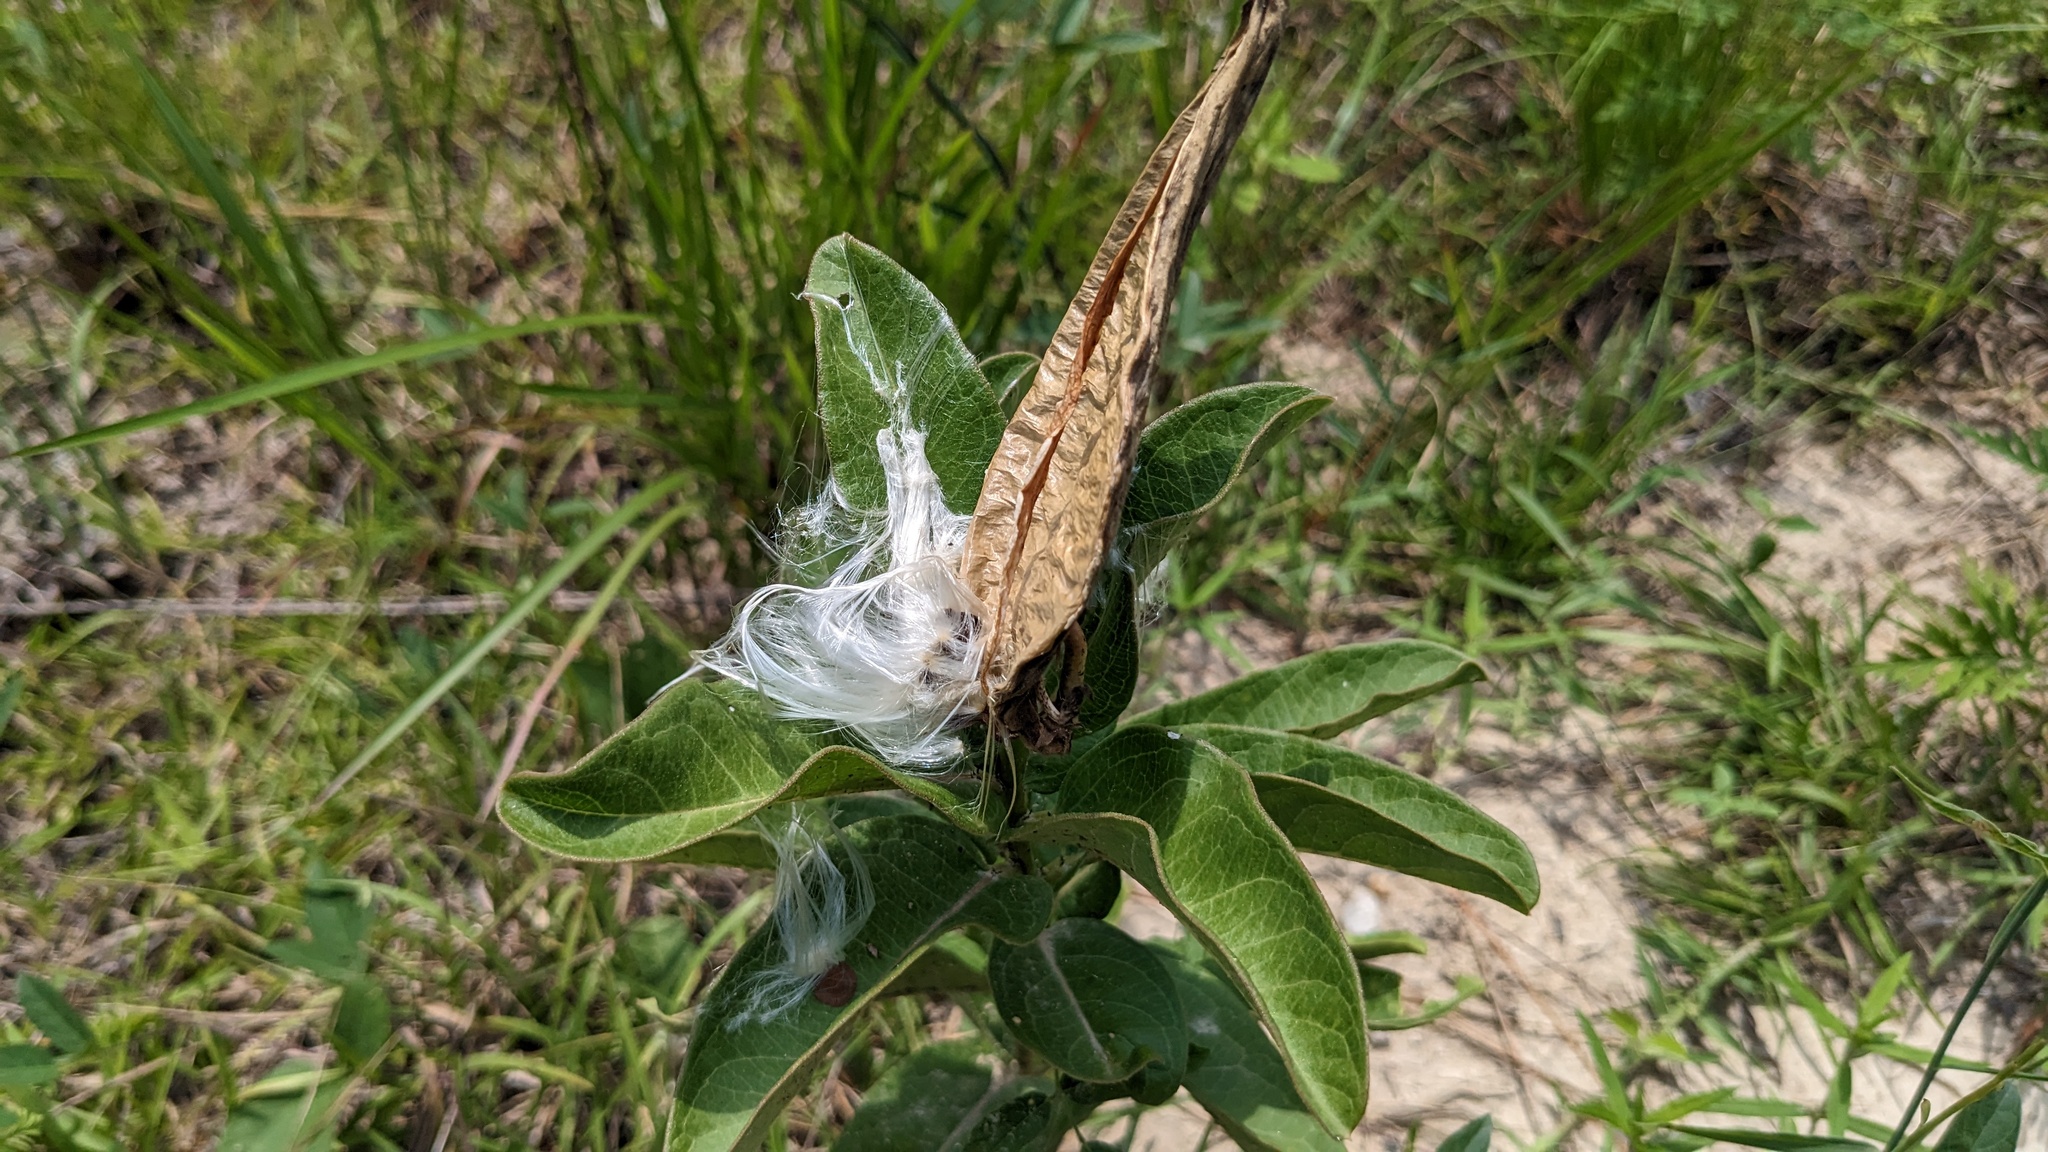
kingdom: Plantae
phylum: Tracheophyta
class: Magnoliopsida
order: Gentianales
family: Apocynaceae
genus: Asclepias
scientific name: Asclepias viridis
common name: Antelope-horns
